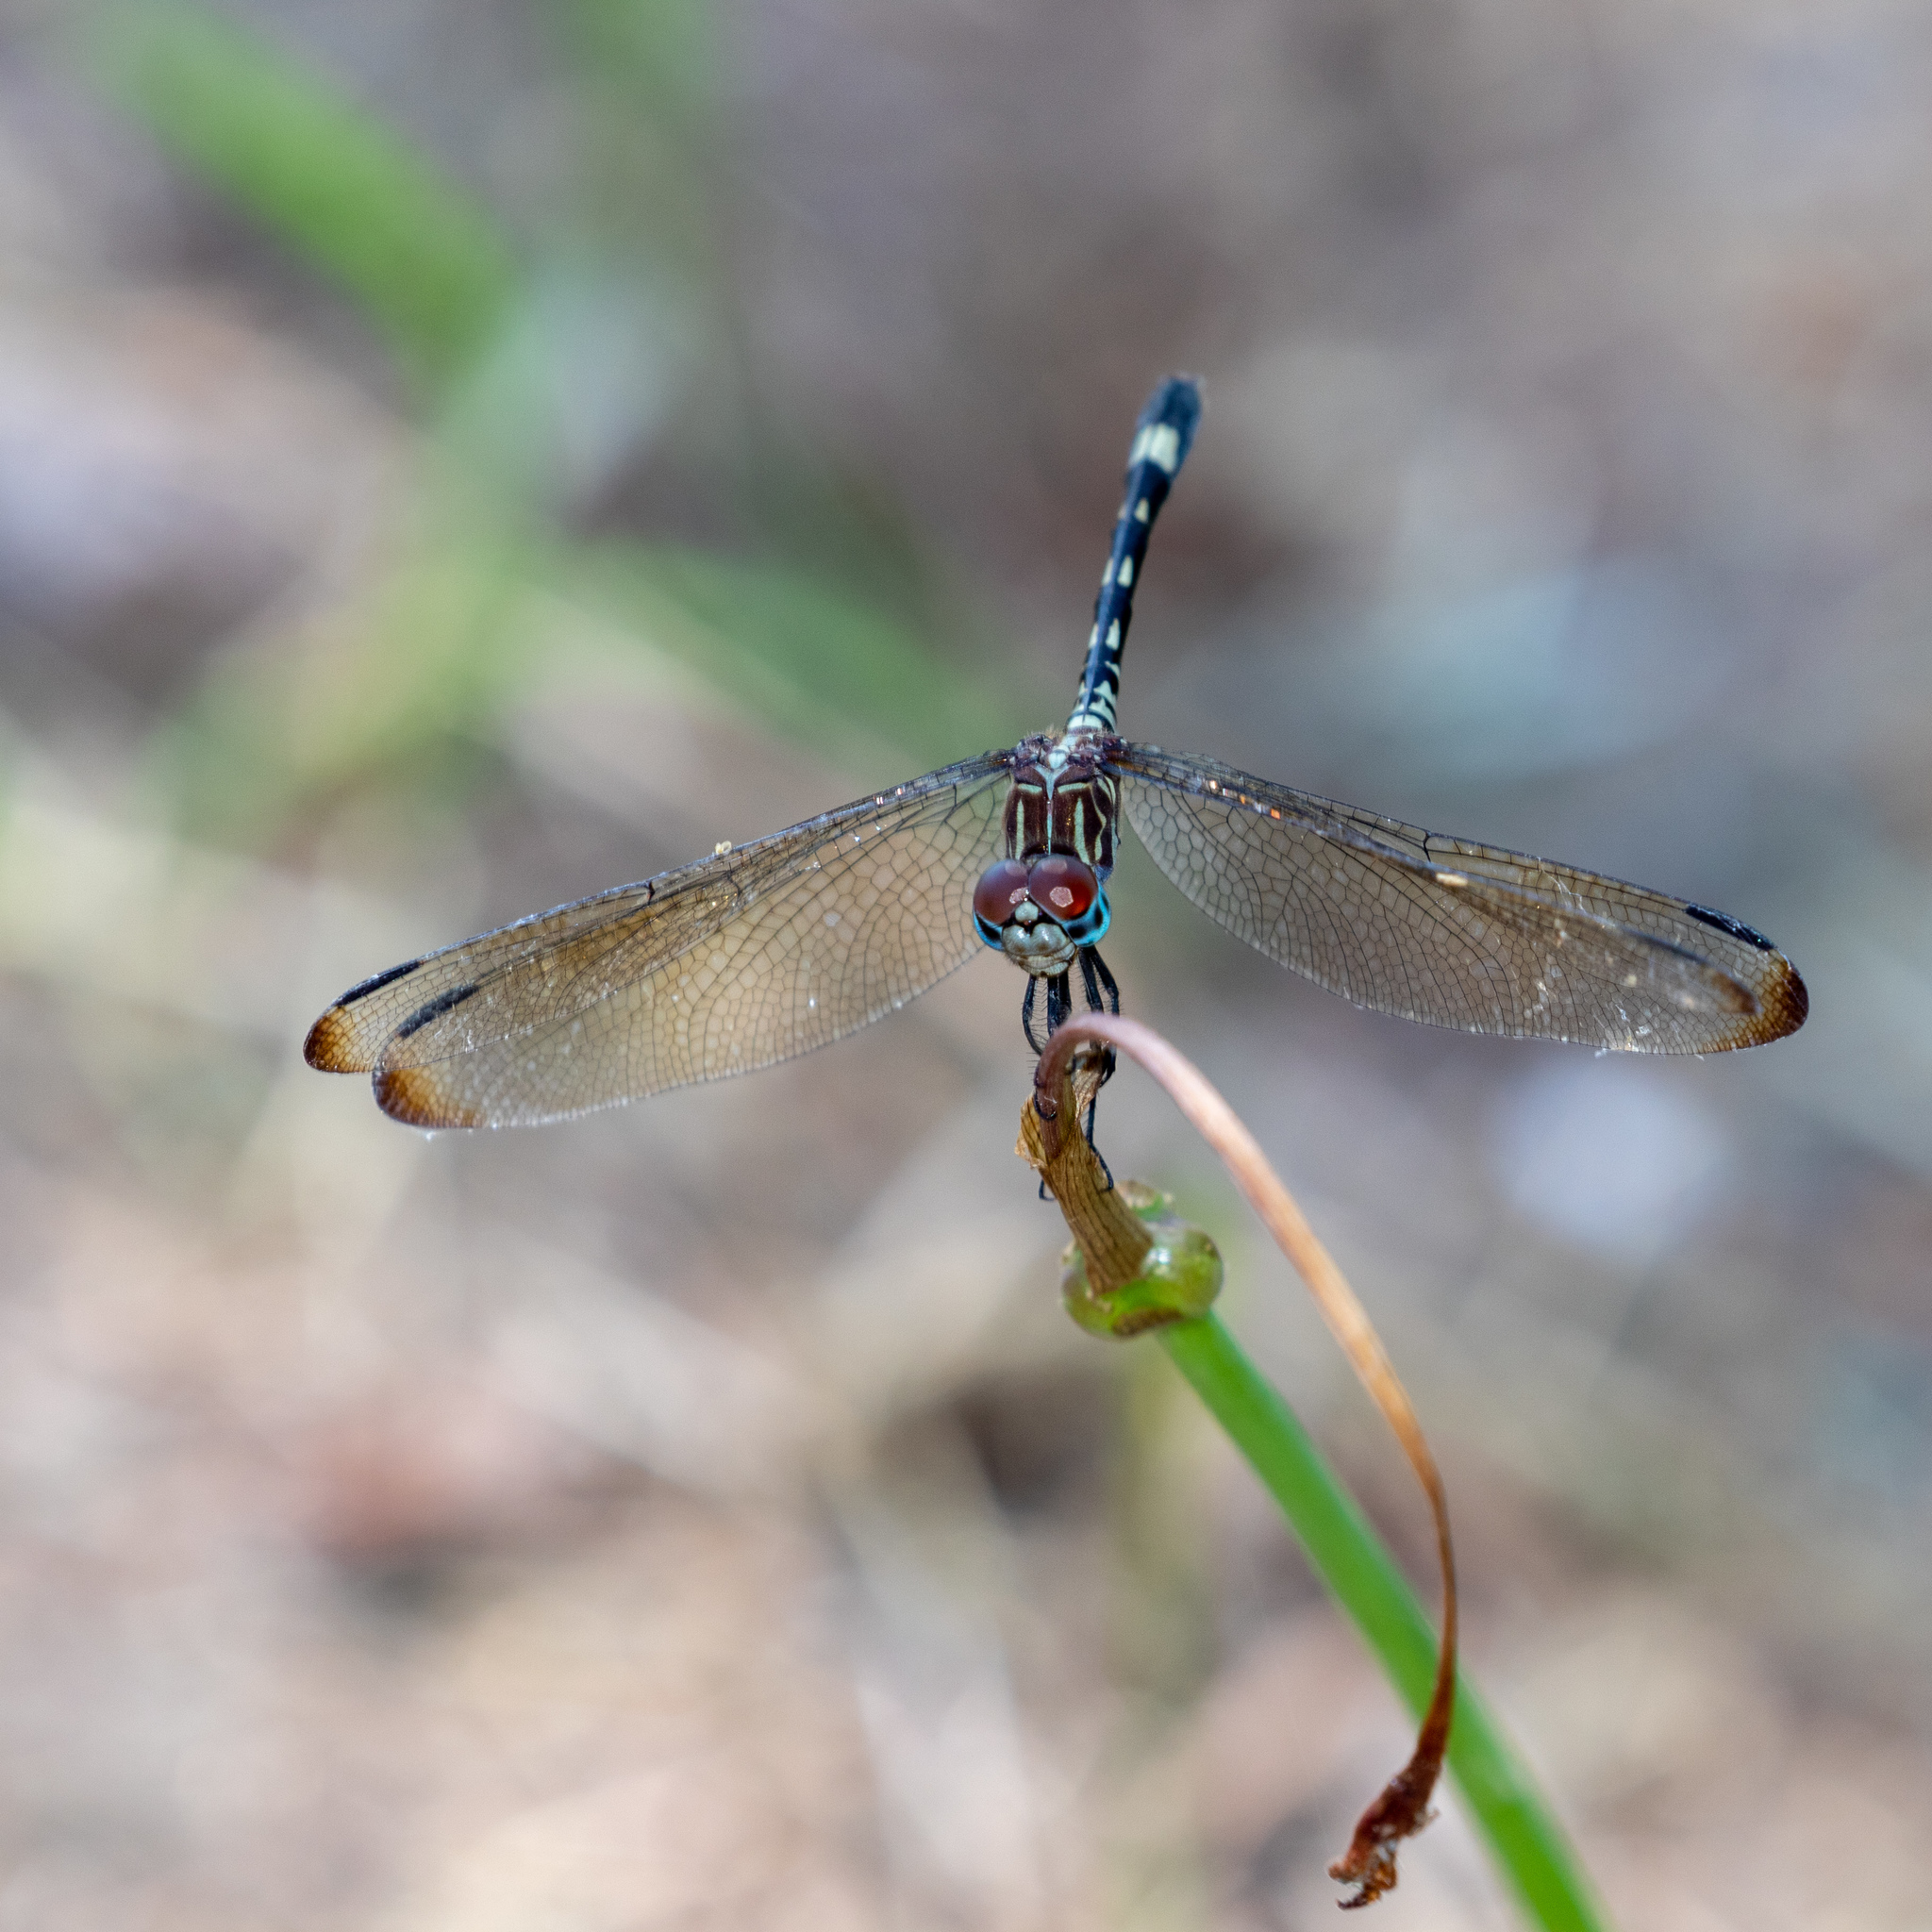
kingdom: Animalia
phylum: Arthropoda
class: Insecta
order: Odonata
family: Libellulidae
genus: Dythemis
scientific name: Dythemis velox
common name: Swift setwing
